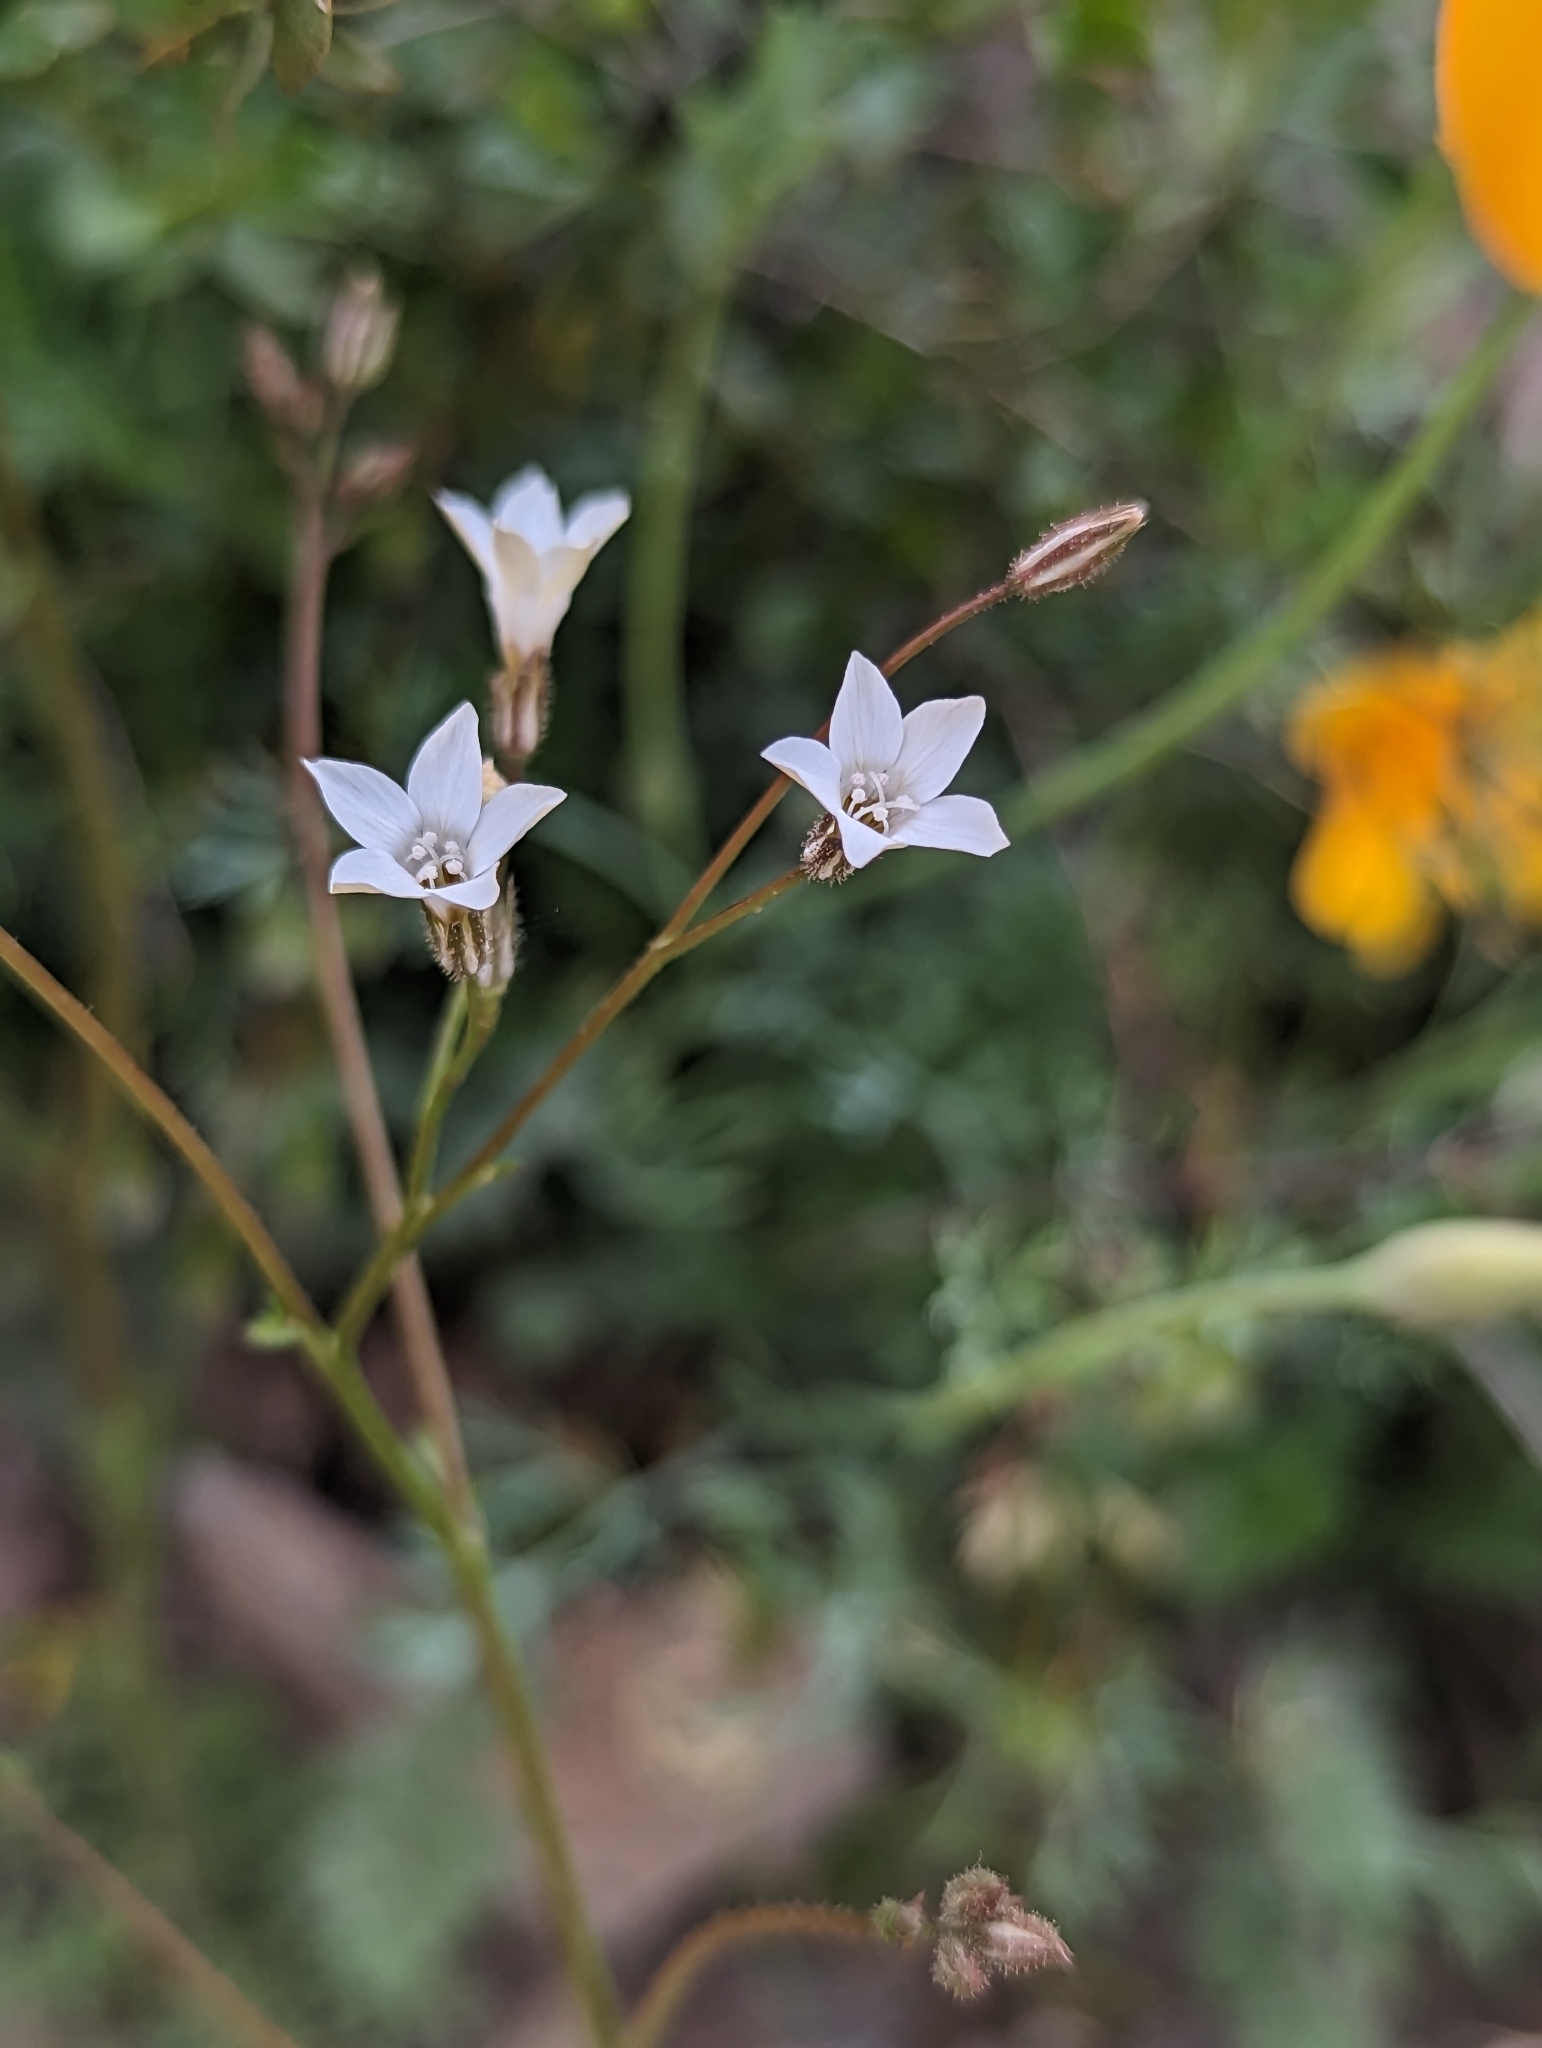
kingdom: Plantae
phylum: Tracheophyta
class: Magnoliopsida
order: Ericales
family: Polemoniaceae
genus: Gilia
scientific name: Gilia stellata
